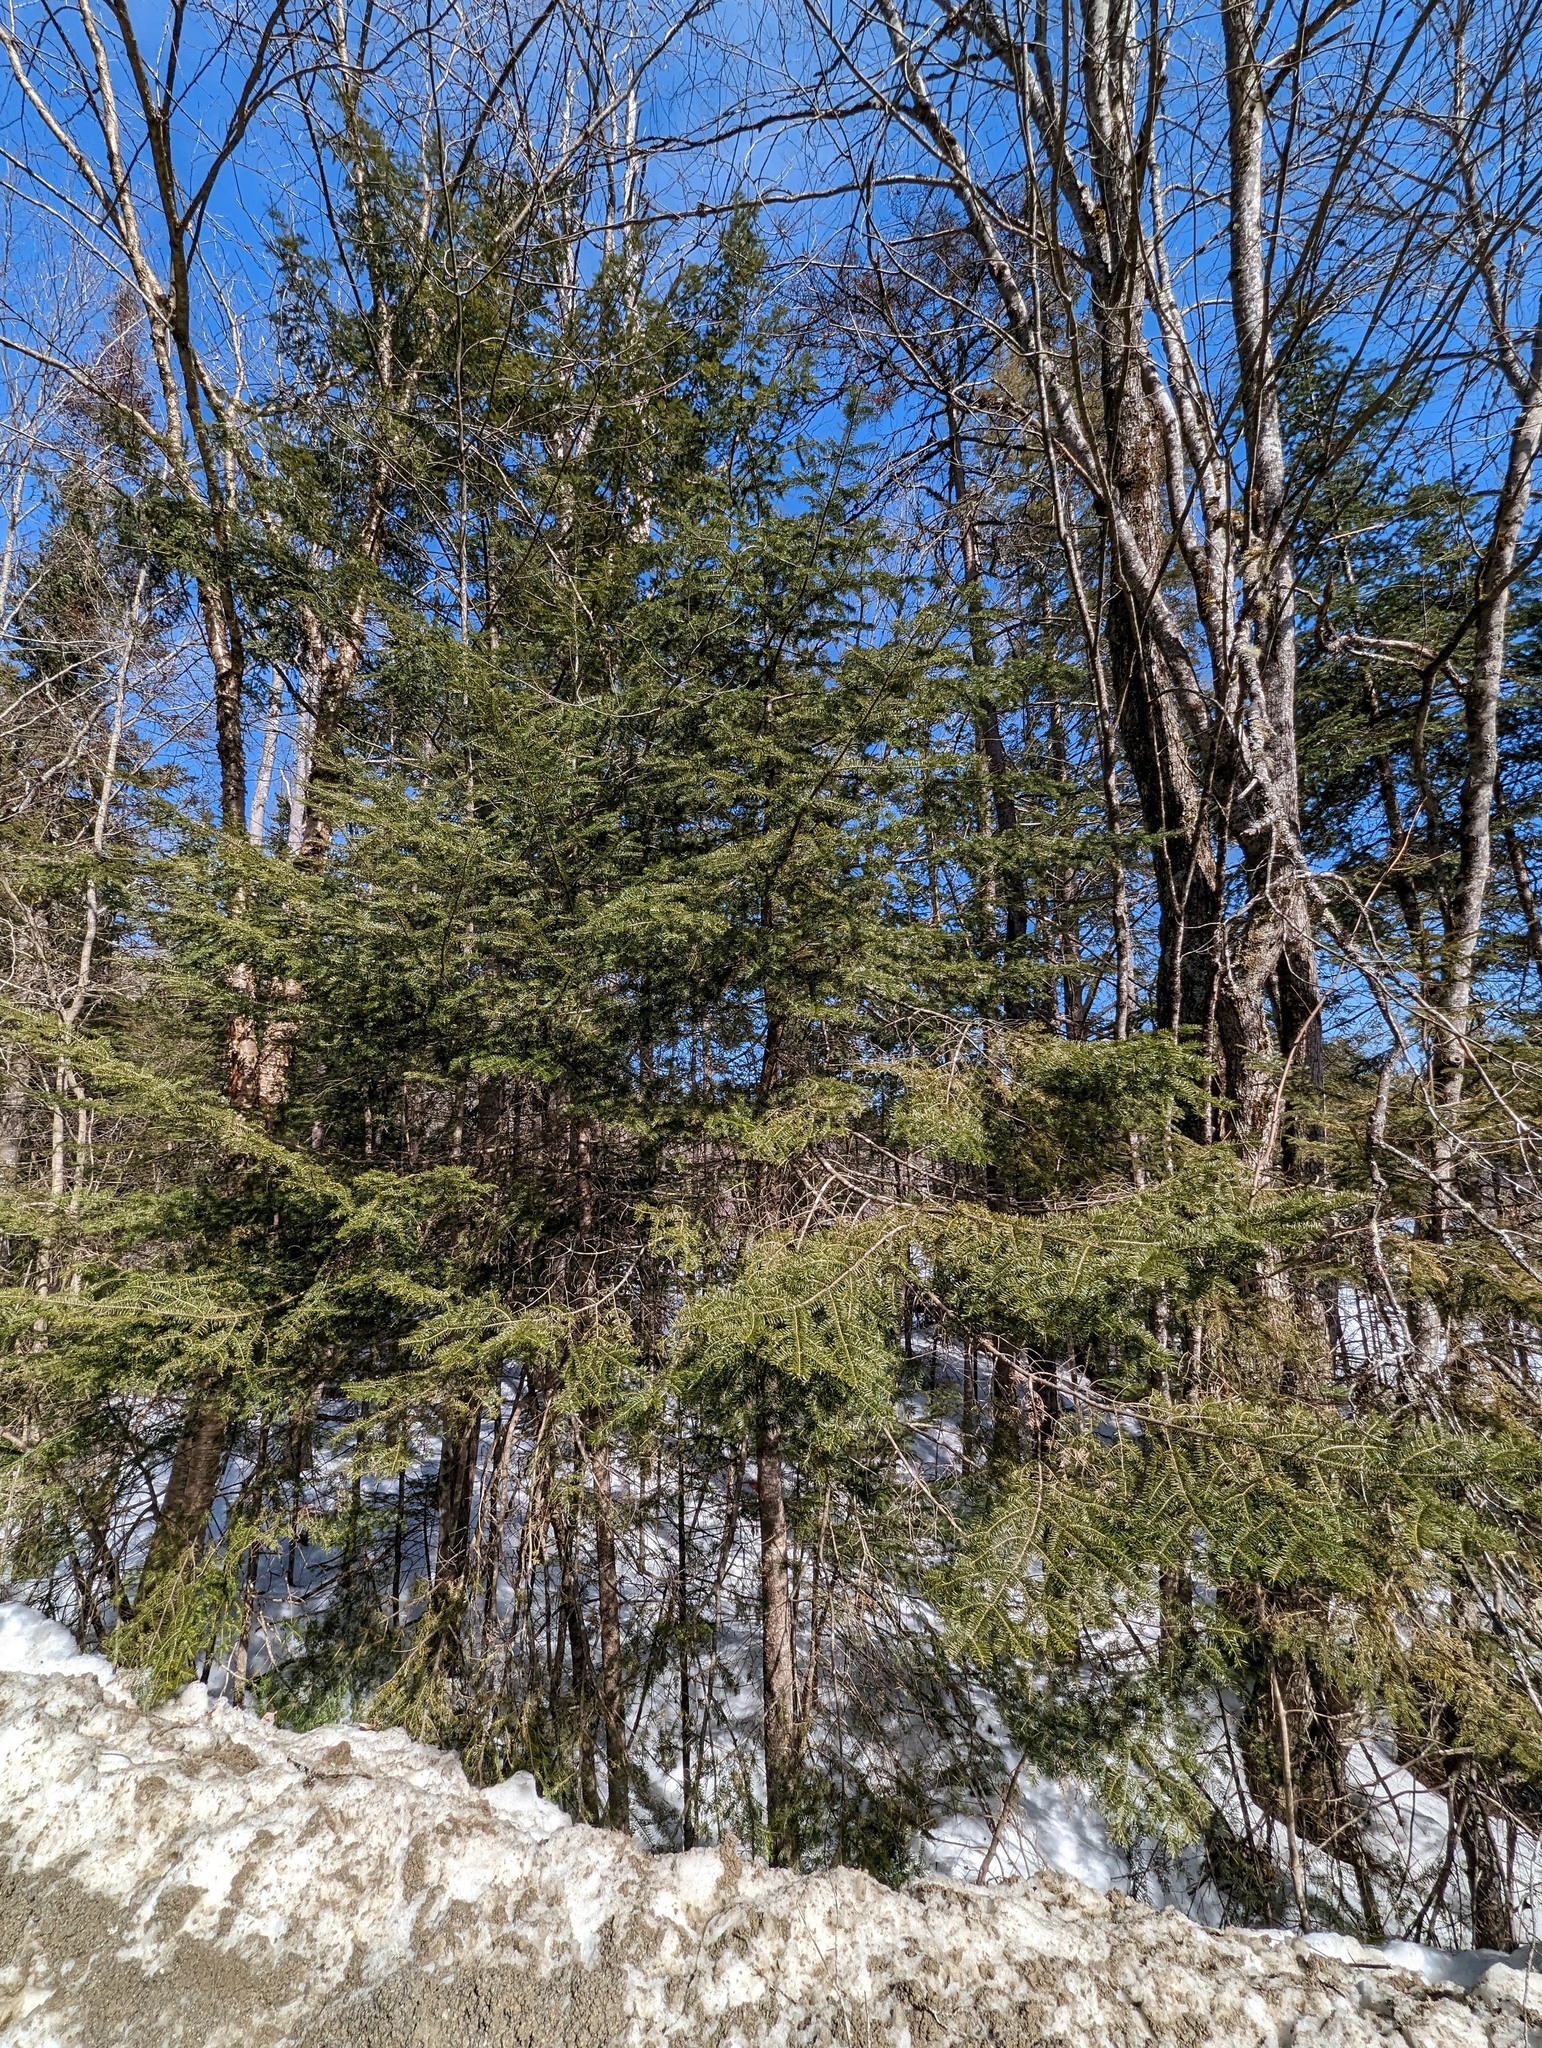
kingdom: Plantae
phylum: Tracheophyta
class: Pinopsida
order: Pinales
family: Pinaceae
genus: Abies
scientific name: Abies balsamea
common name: Balsam fir
